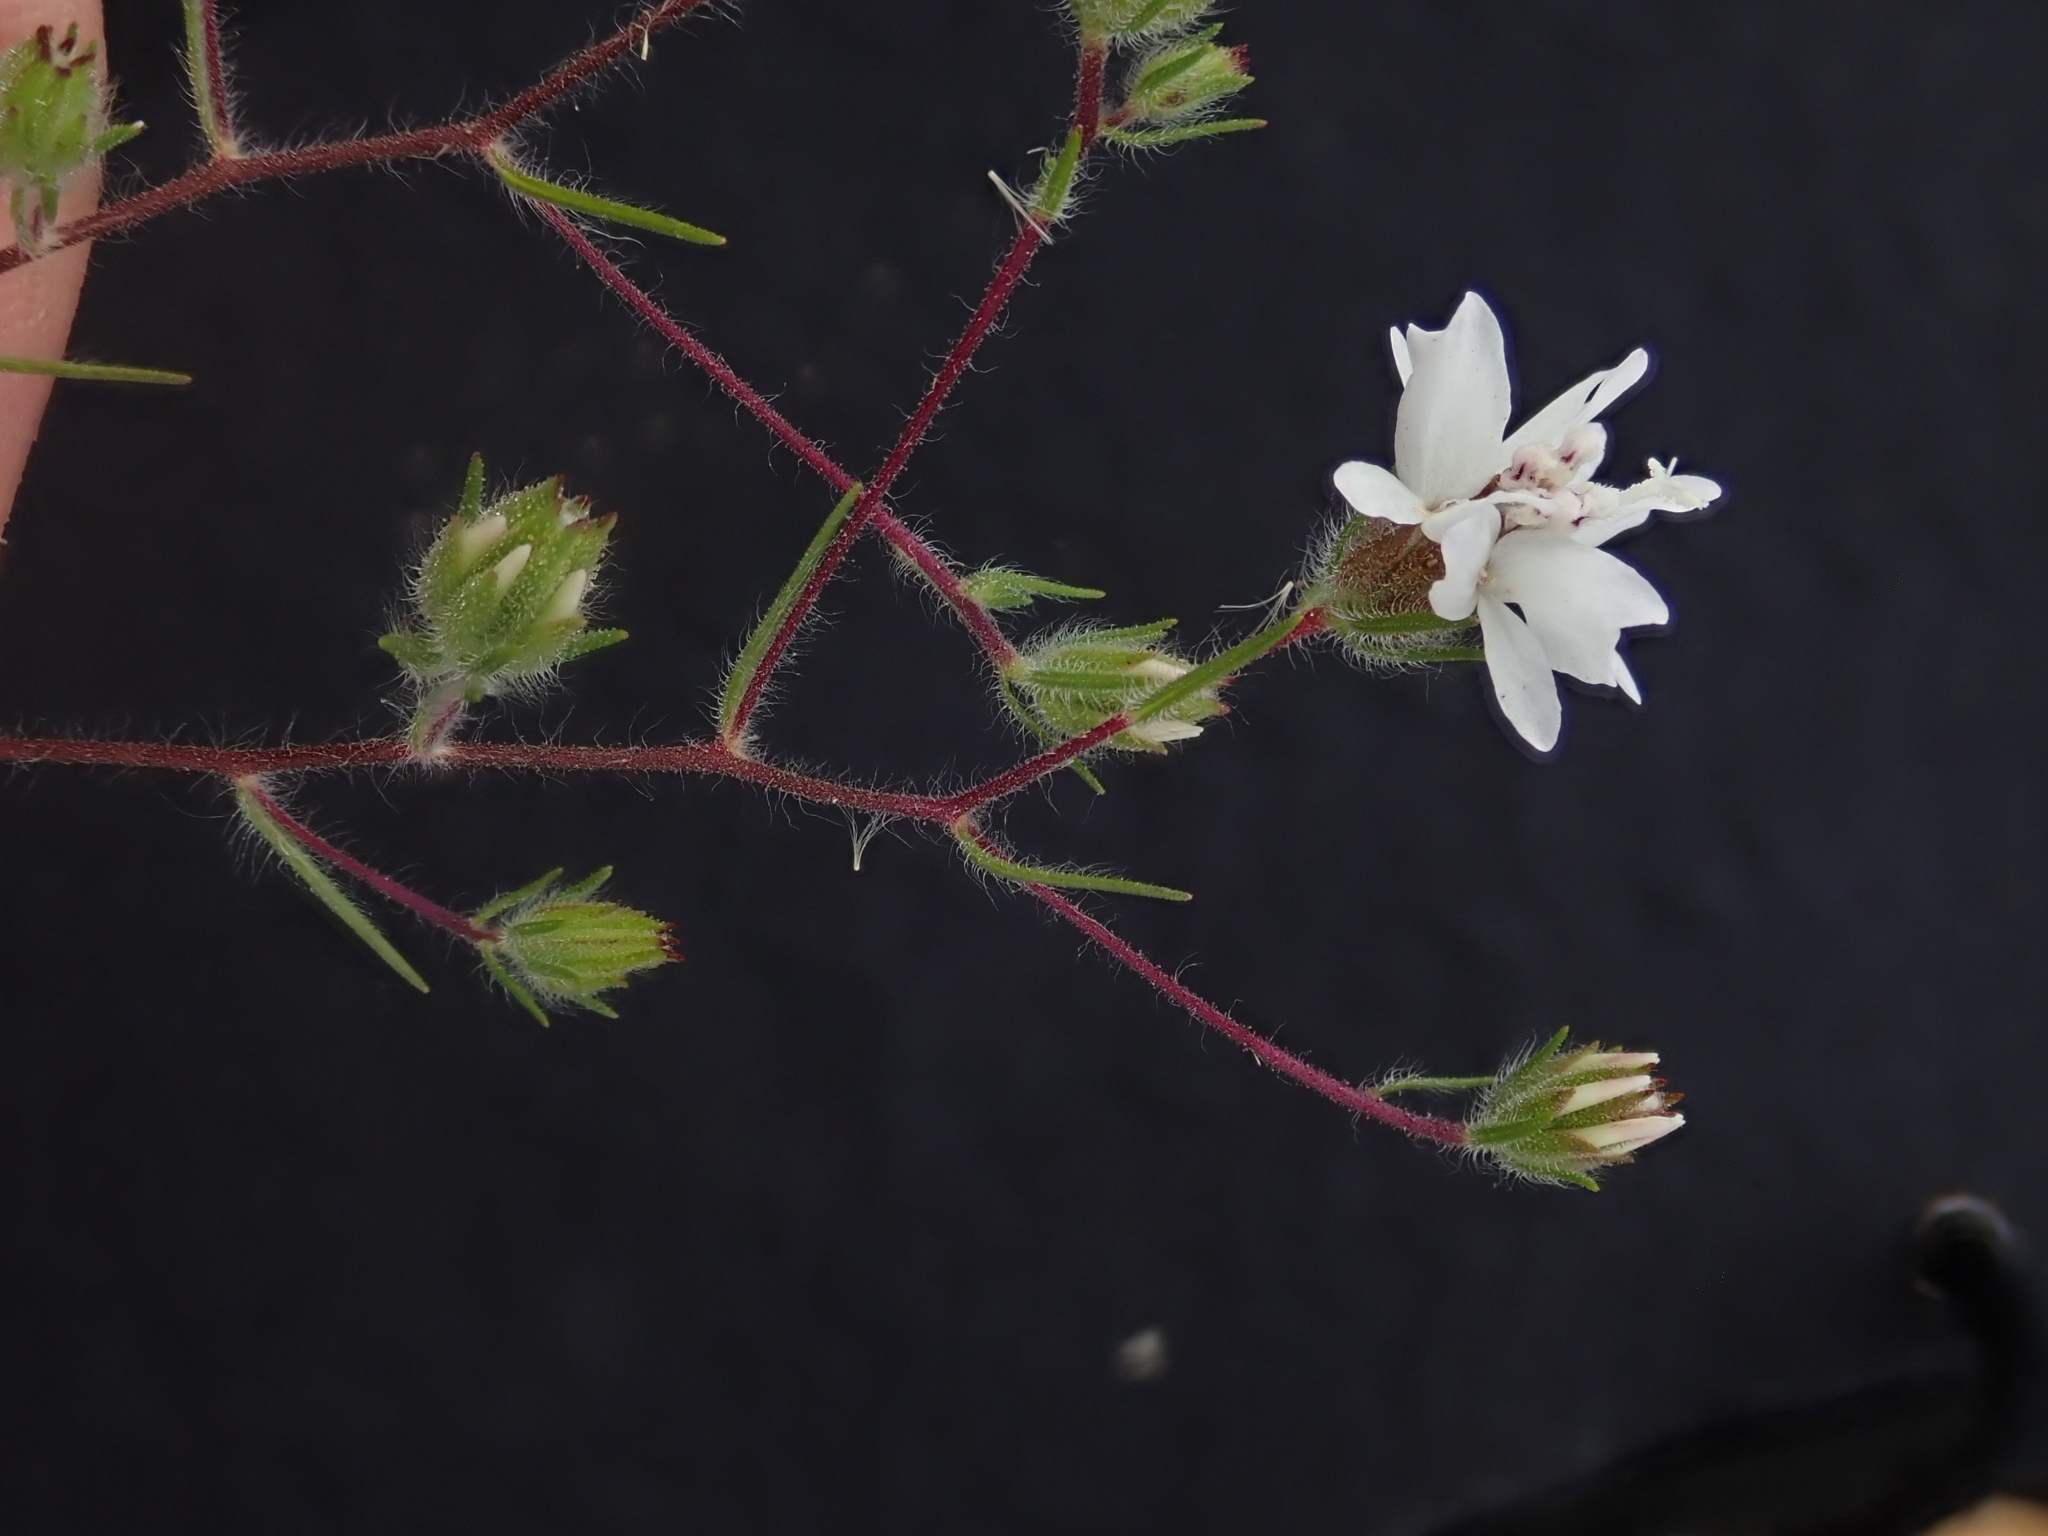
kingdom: Plantae
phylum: Tracheophyta
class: Magnoliopsida
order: Asterales
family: Asteraceae
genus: Osmadenia
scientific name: Osmadenia tenella
